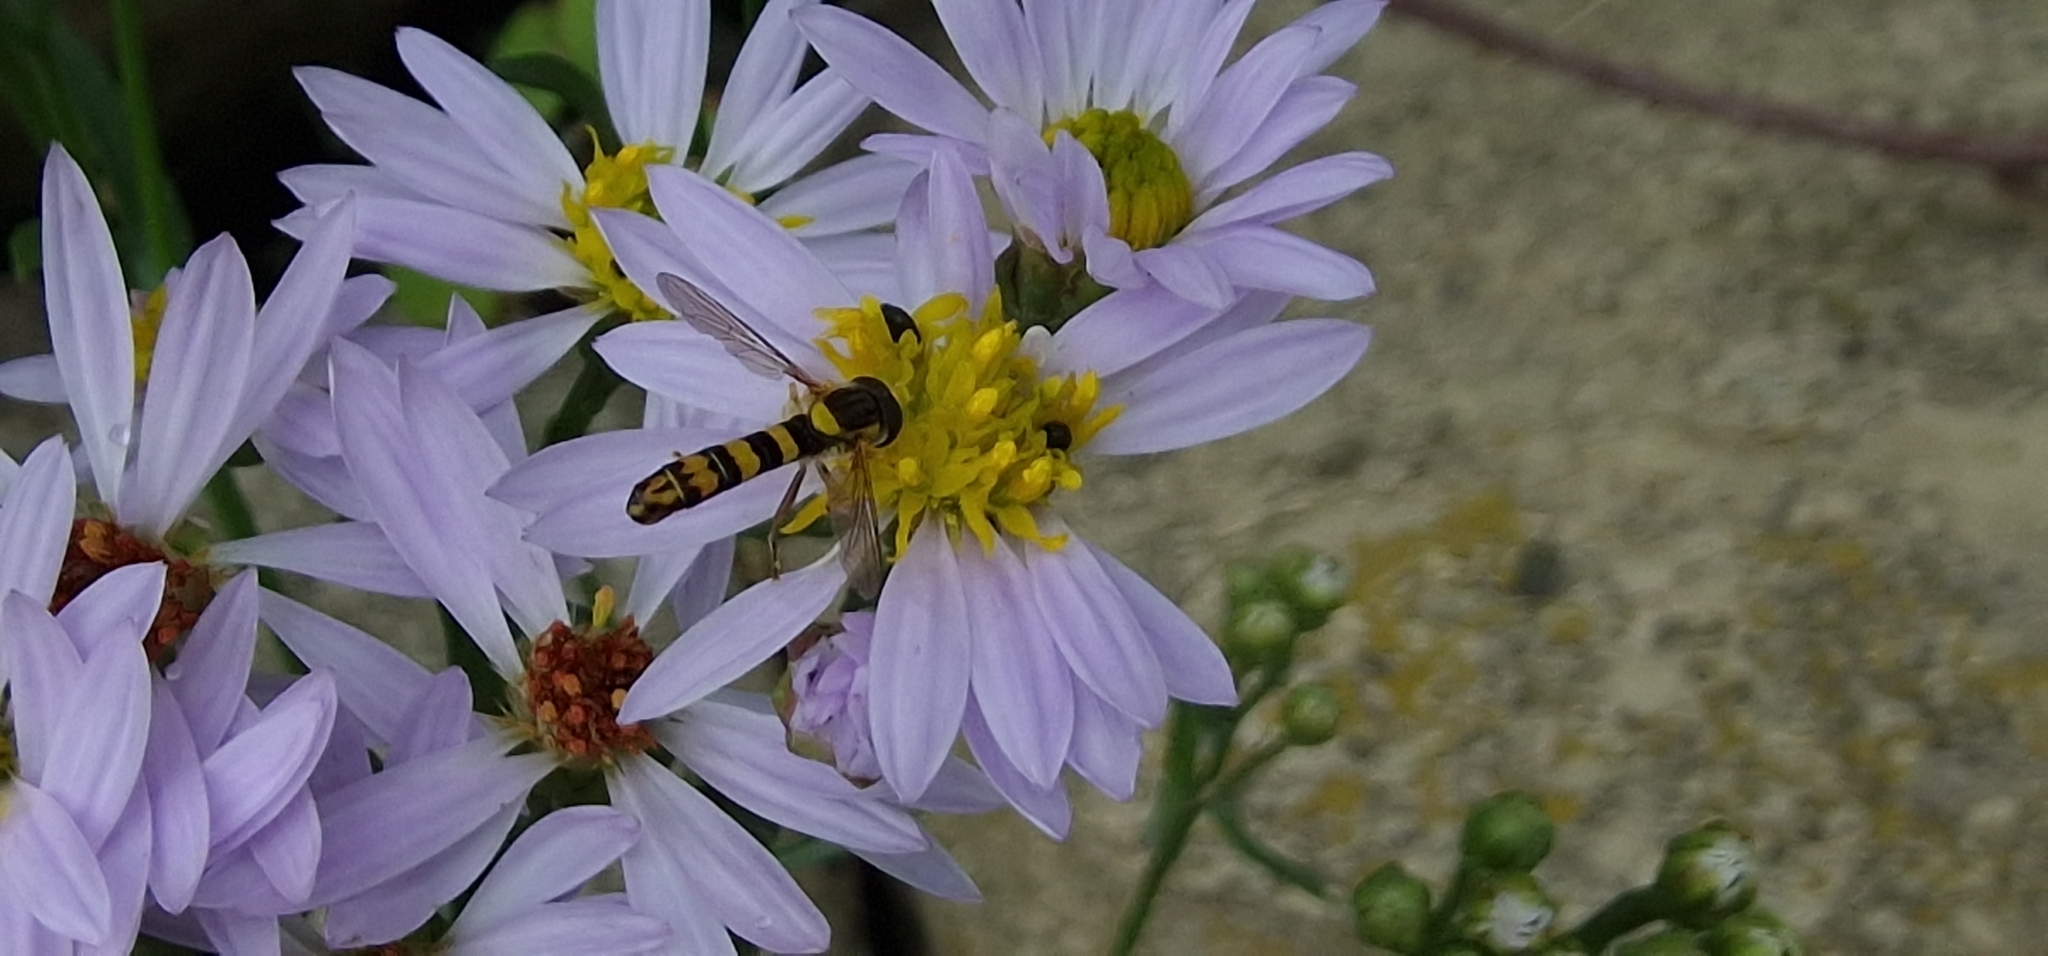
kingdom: Animalia
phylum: Arthropoda
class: Insecta
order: Diptera
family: Syrphidae
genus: Sphaerophoria
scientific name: Sphaerophoria scripta
